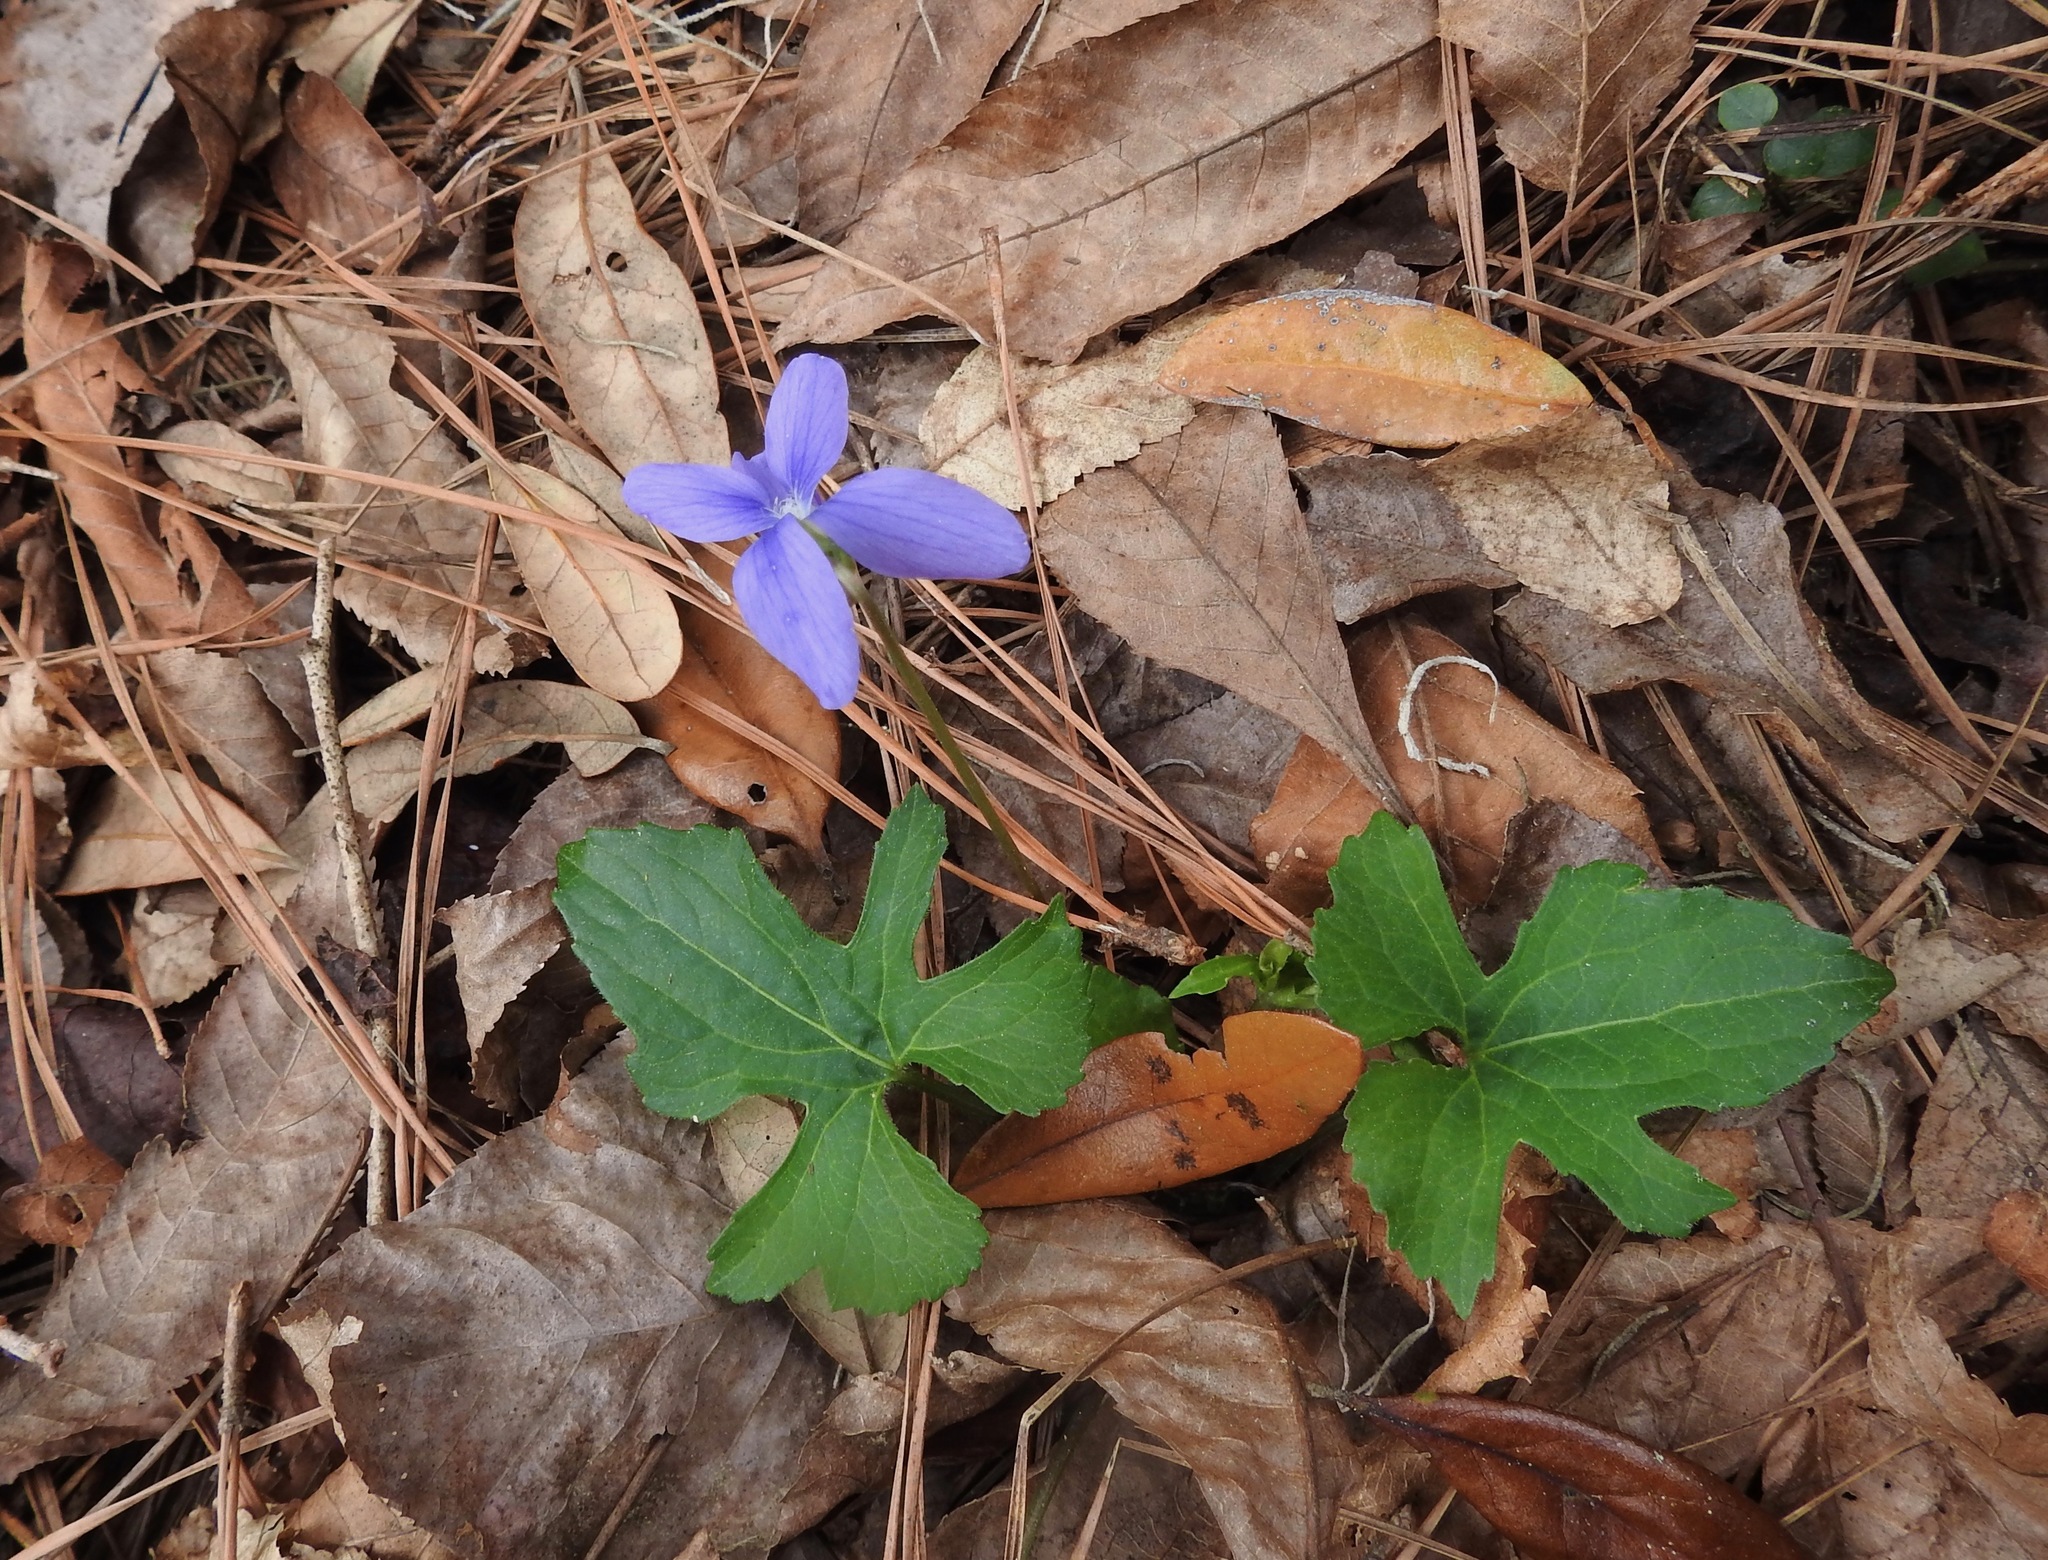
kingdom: Plantae
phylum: Tracheophyta
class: Magnoliopsida
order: Malpighiales
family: Violaceae
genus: Viola
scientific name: Viola palmata
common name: Early blue violet
